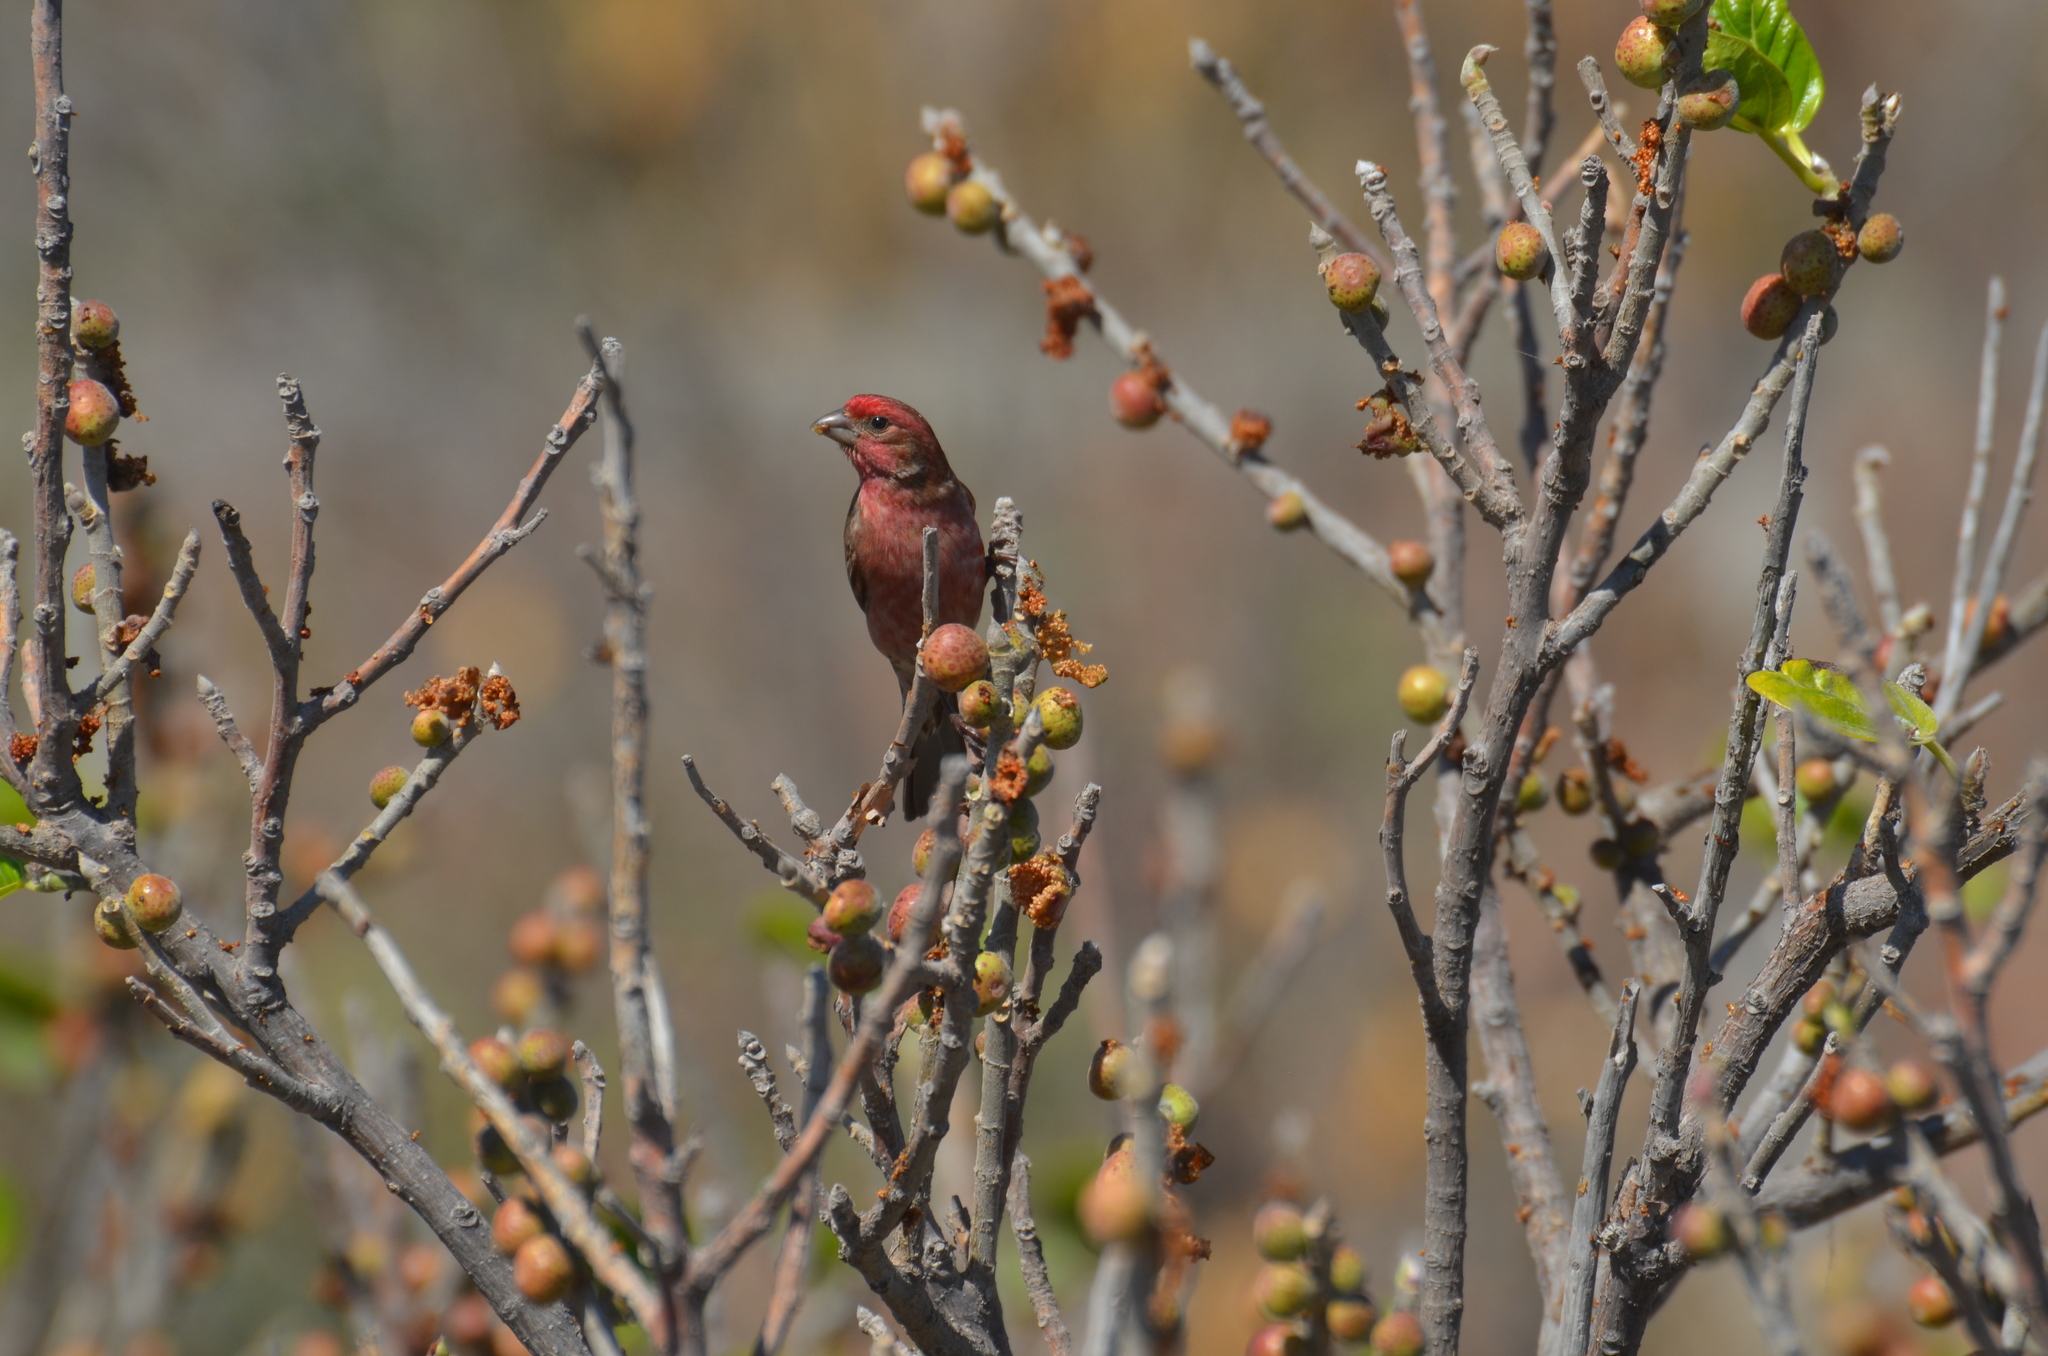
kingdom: Animalia
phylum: Chordata
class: Aves
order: Passeriformes
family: Fringillidae
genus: Haemorhous
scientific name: Haemorhous mexicanus
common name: House finch
